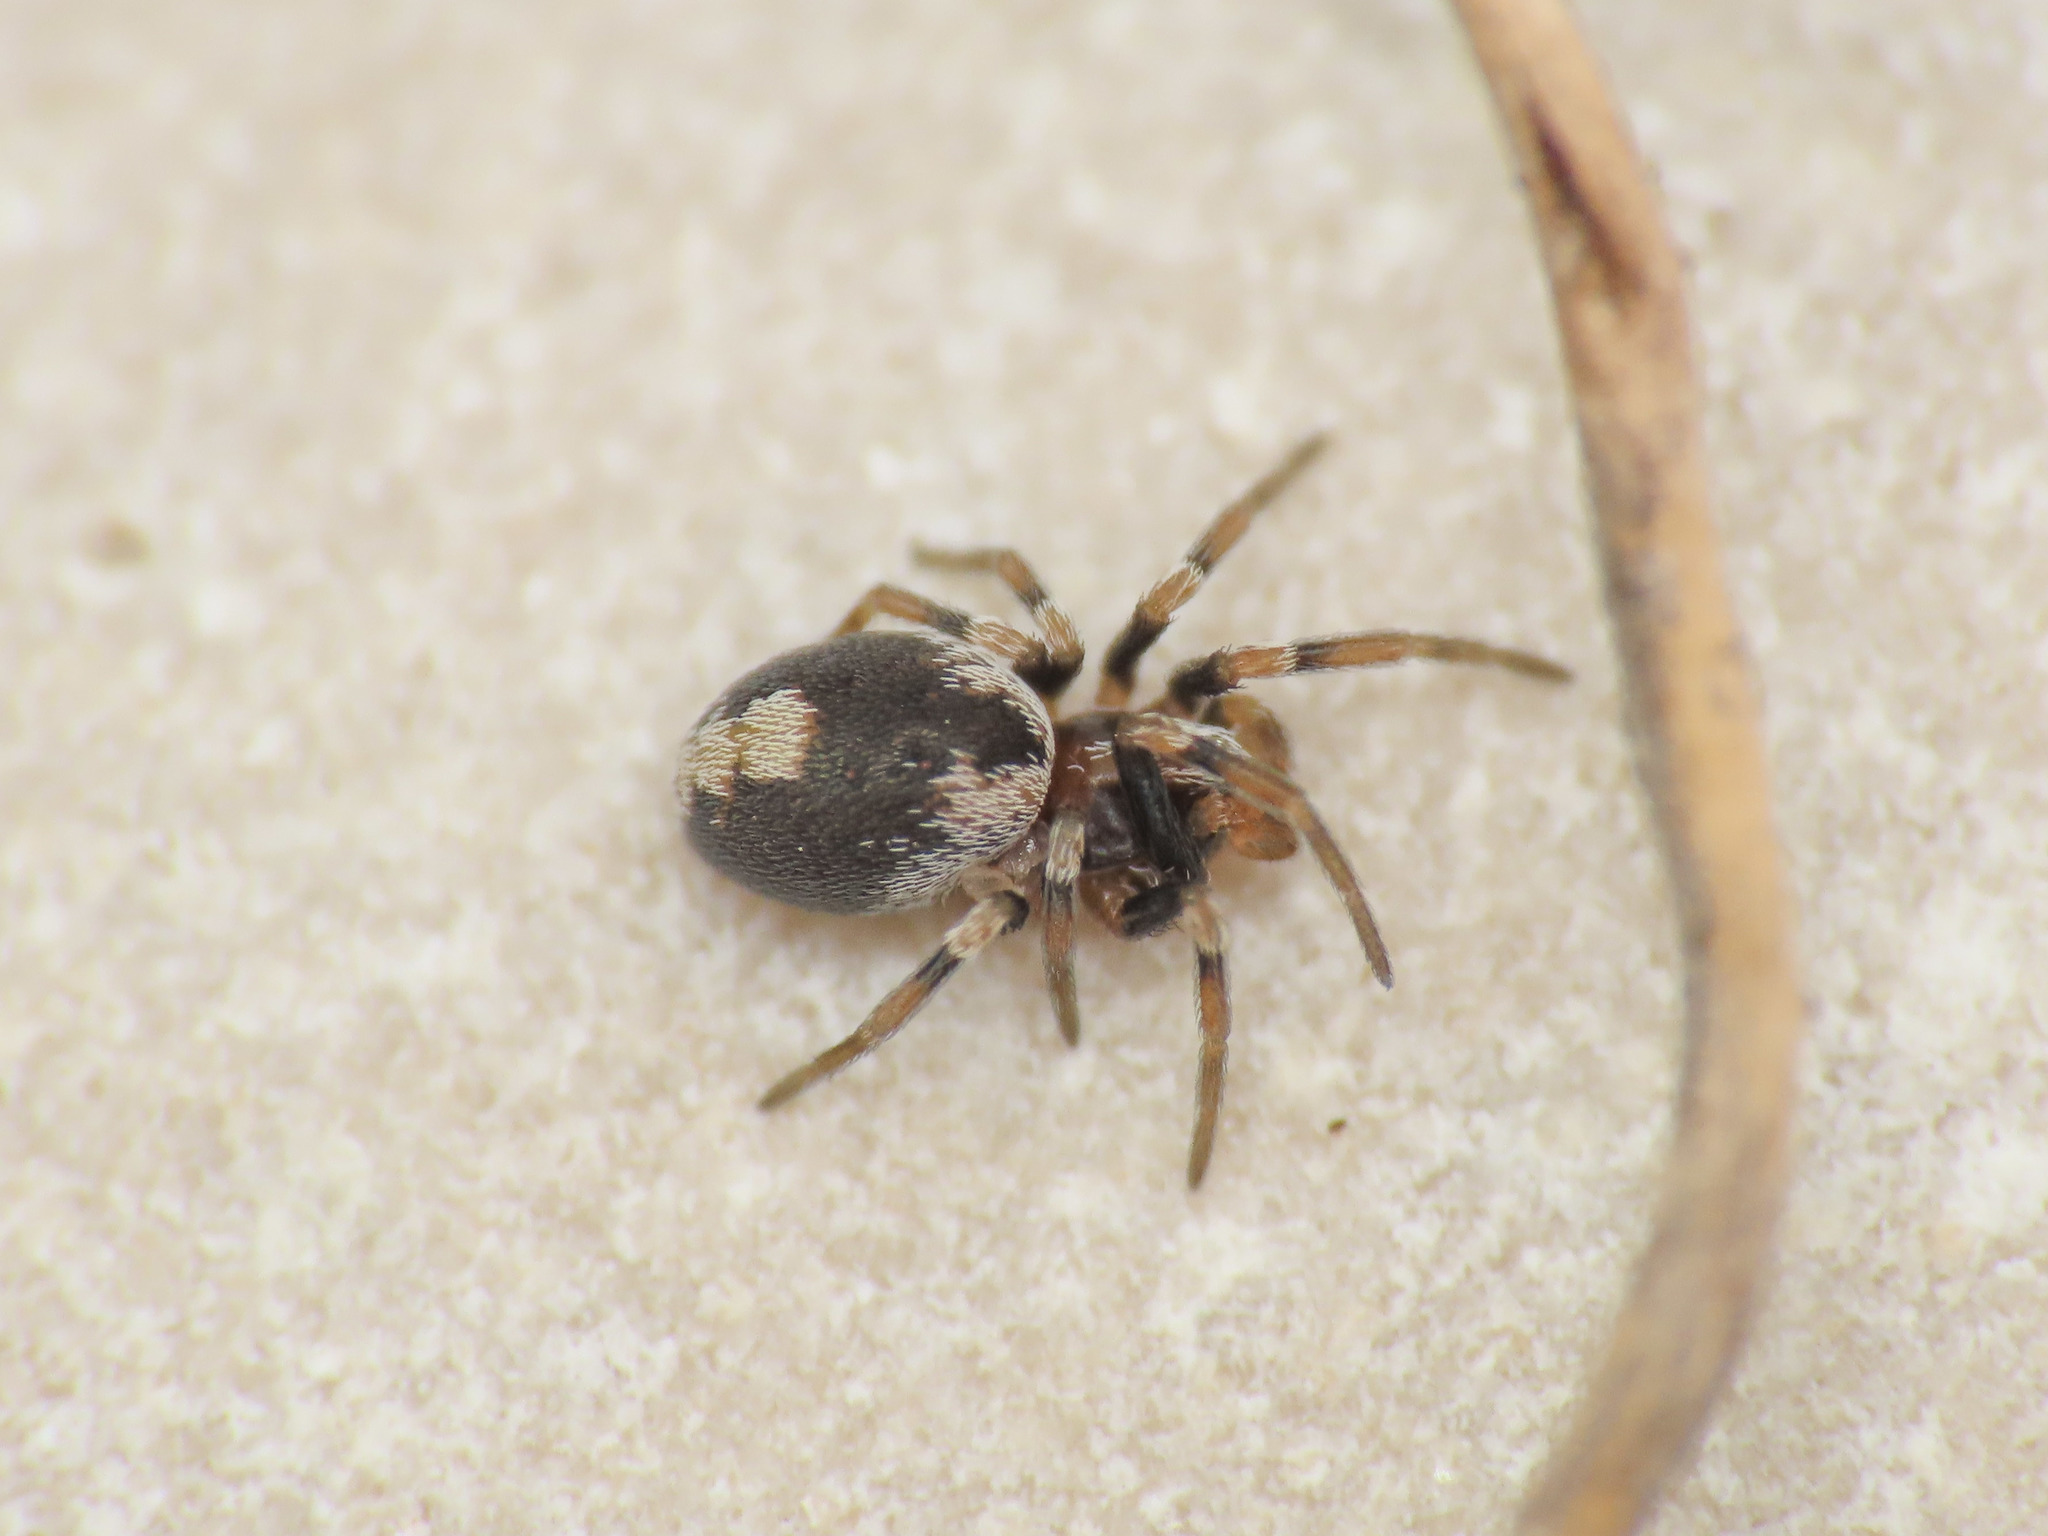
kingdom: Animalia
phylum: Arthropoda
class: Arachnida
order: Araneae
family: Dictynidae
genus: Marilynia
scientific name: Marilynia bicolor
